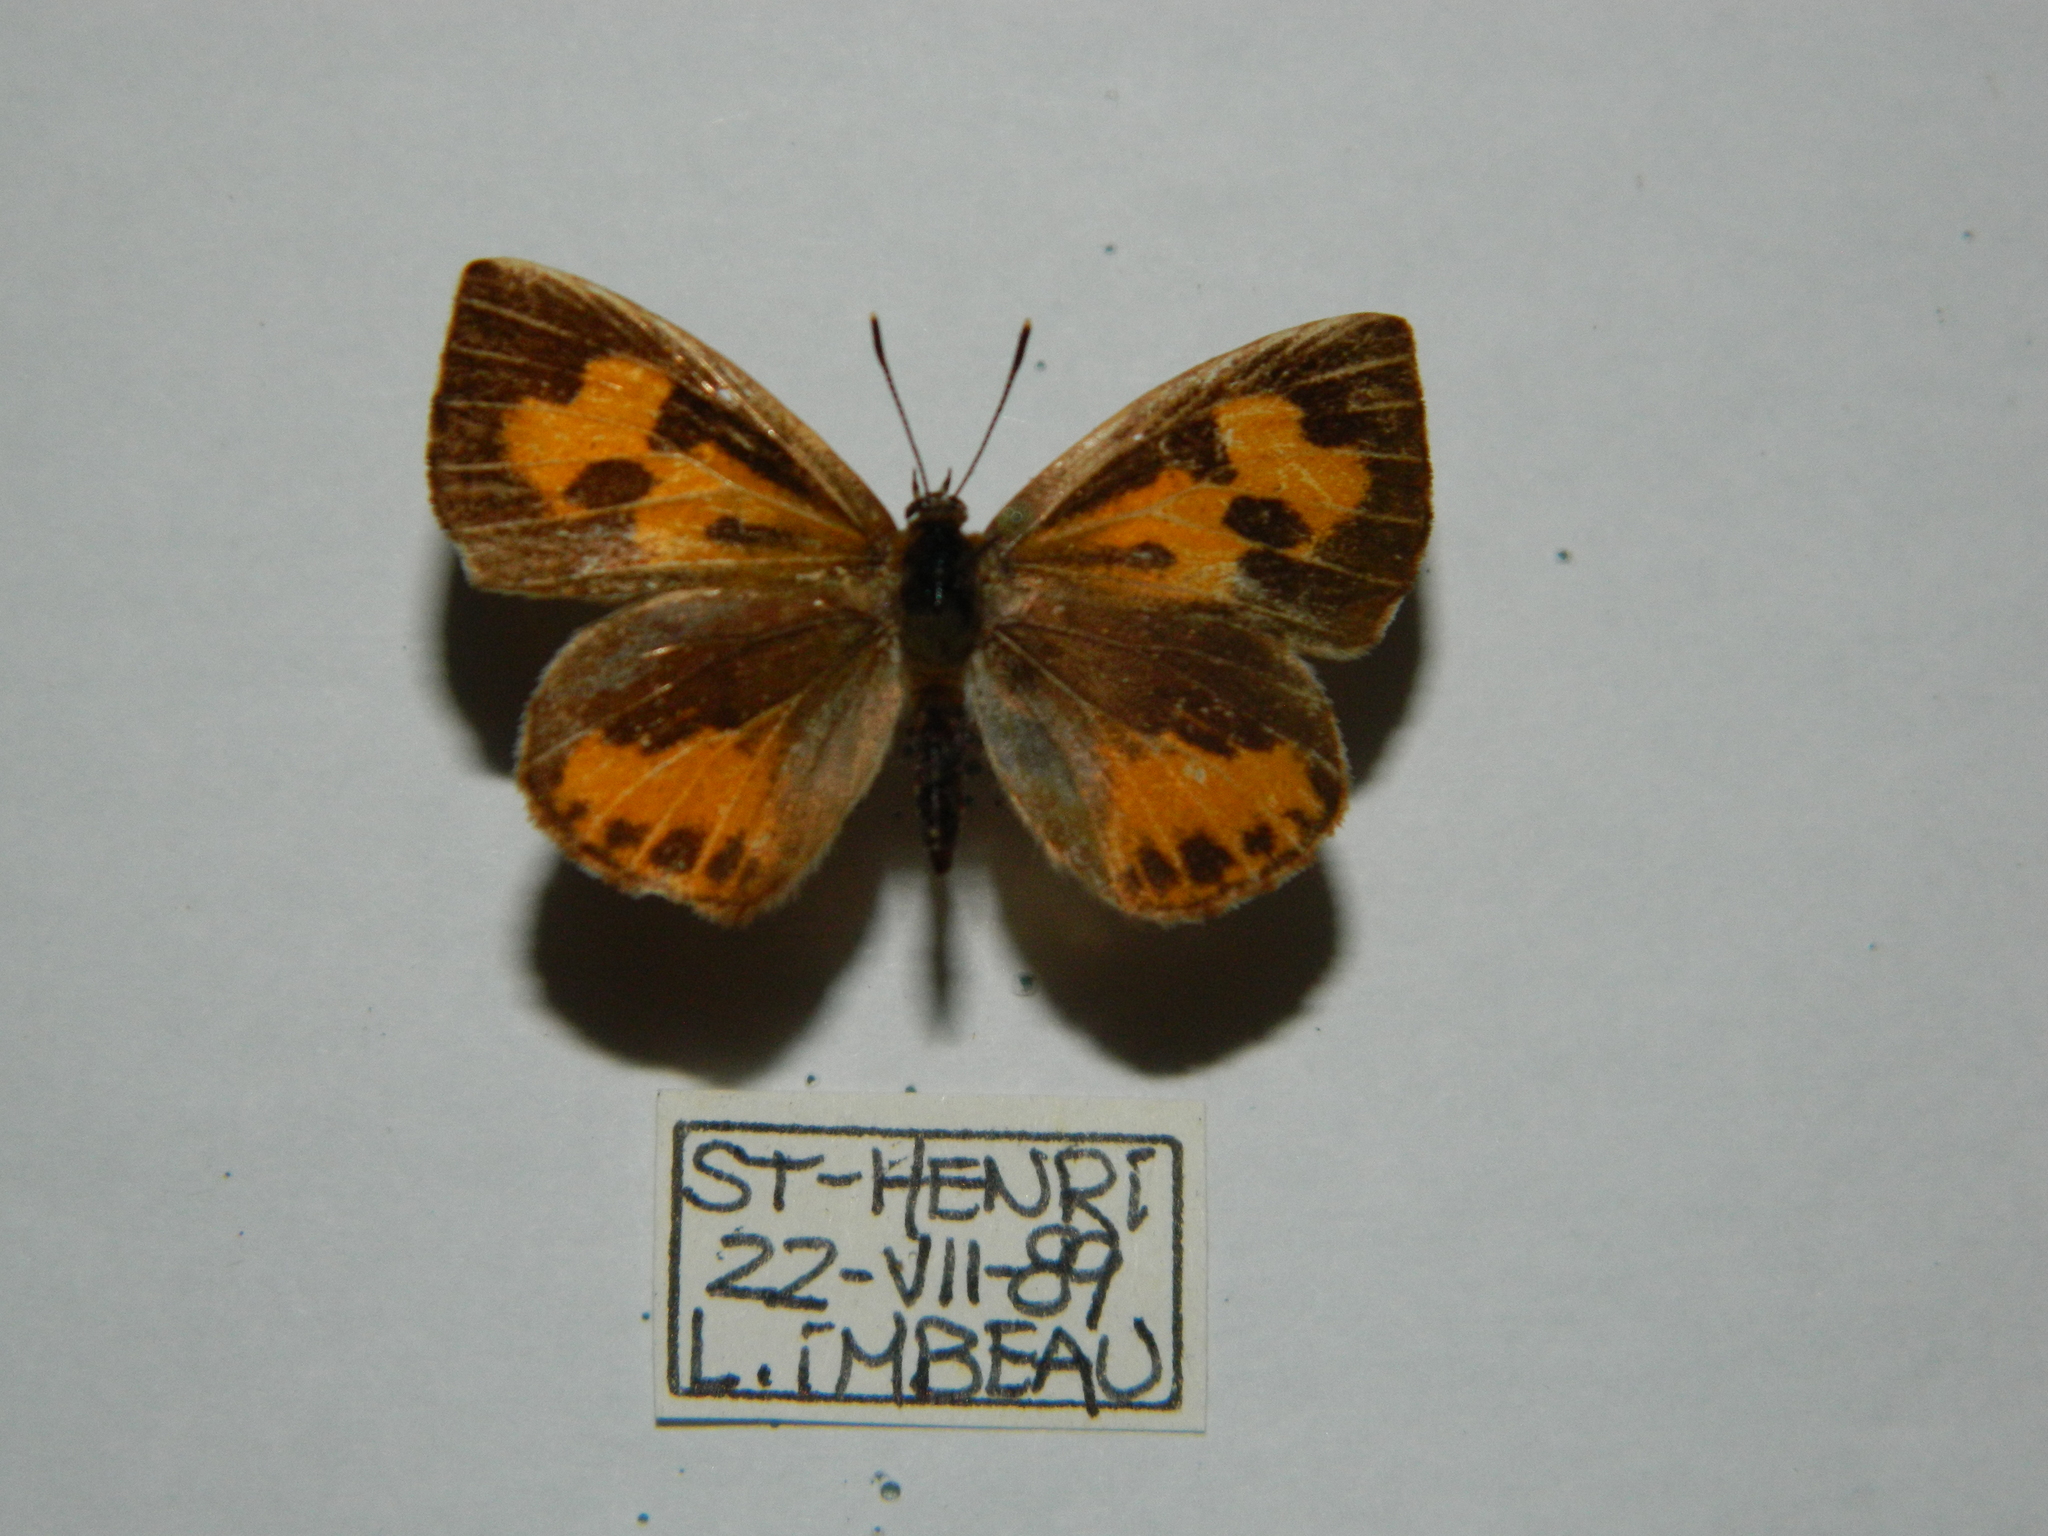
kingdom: Animalia
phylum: Arthropoda
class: Insecta
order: Lepidoptera
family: Lycaenidae
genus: Feniseca
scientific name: Feniseca tarquinius
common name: Harvester
